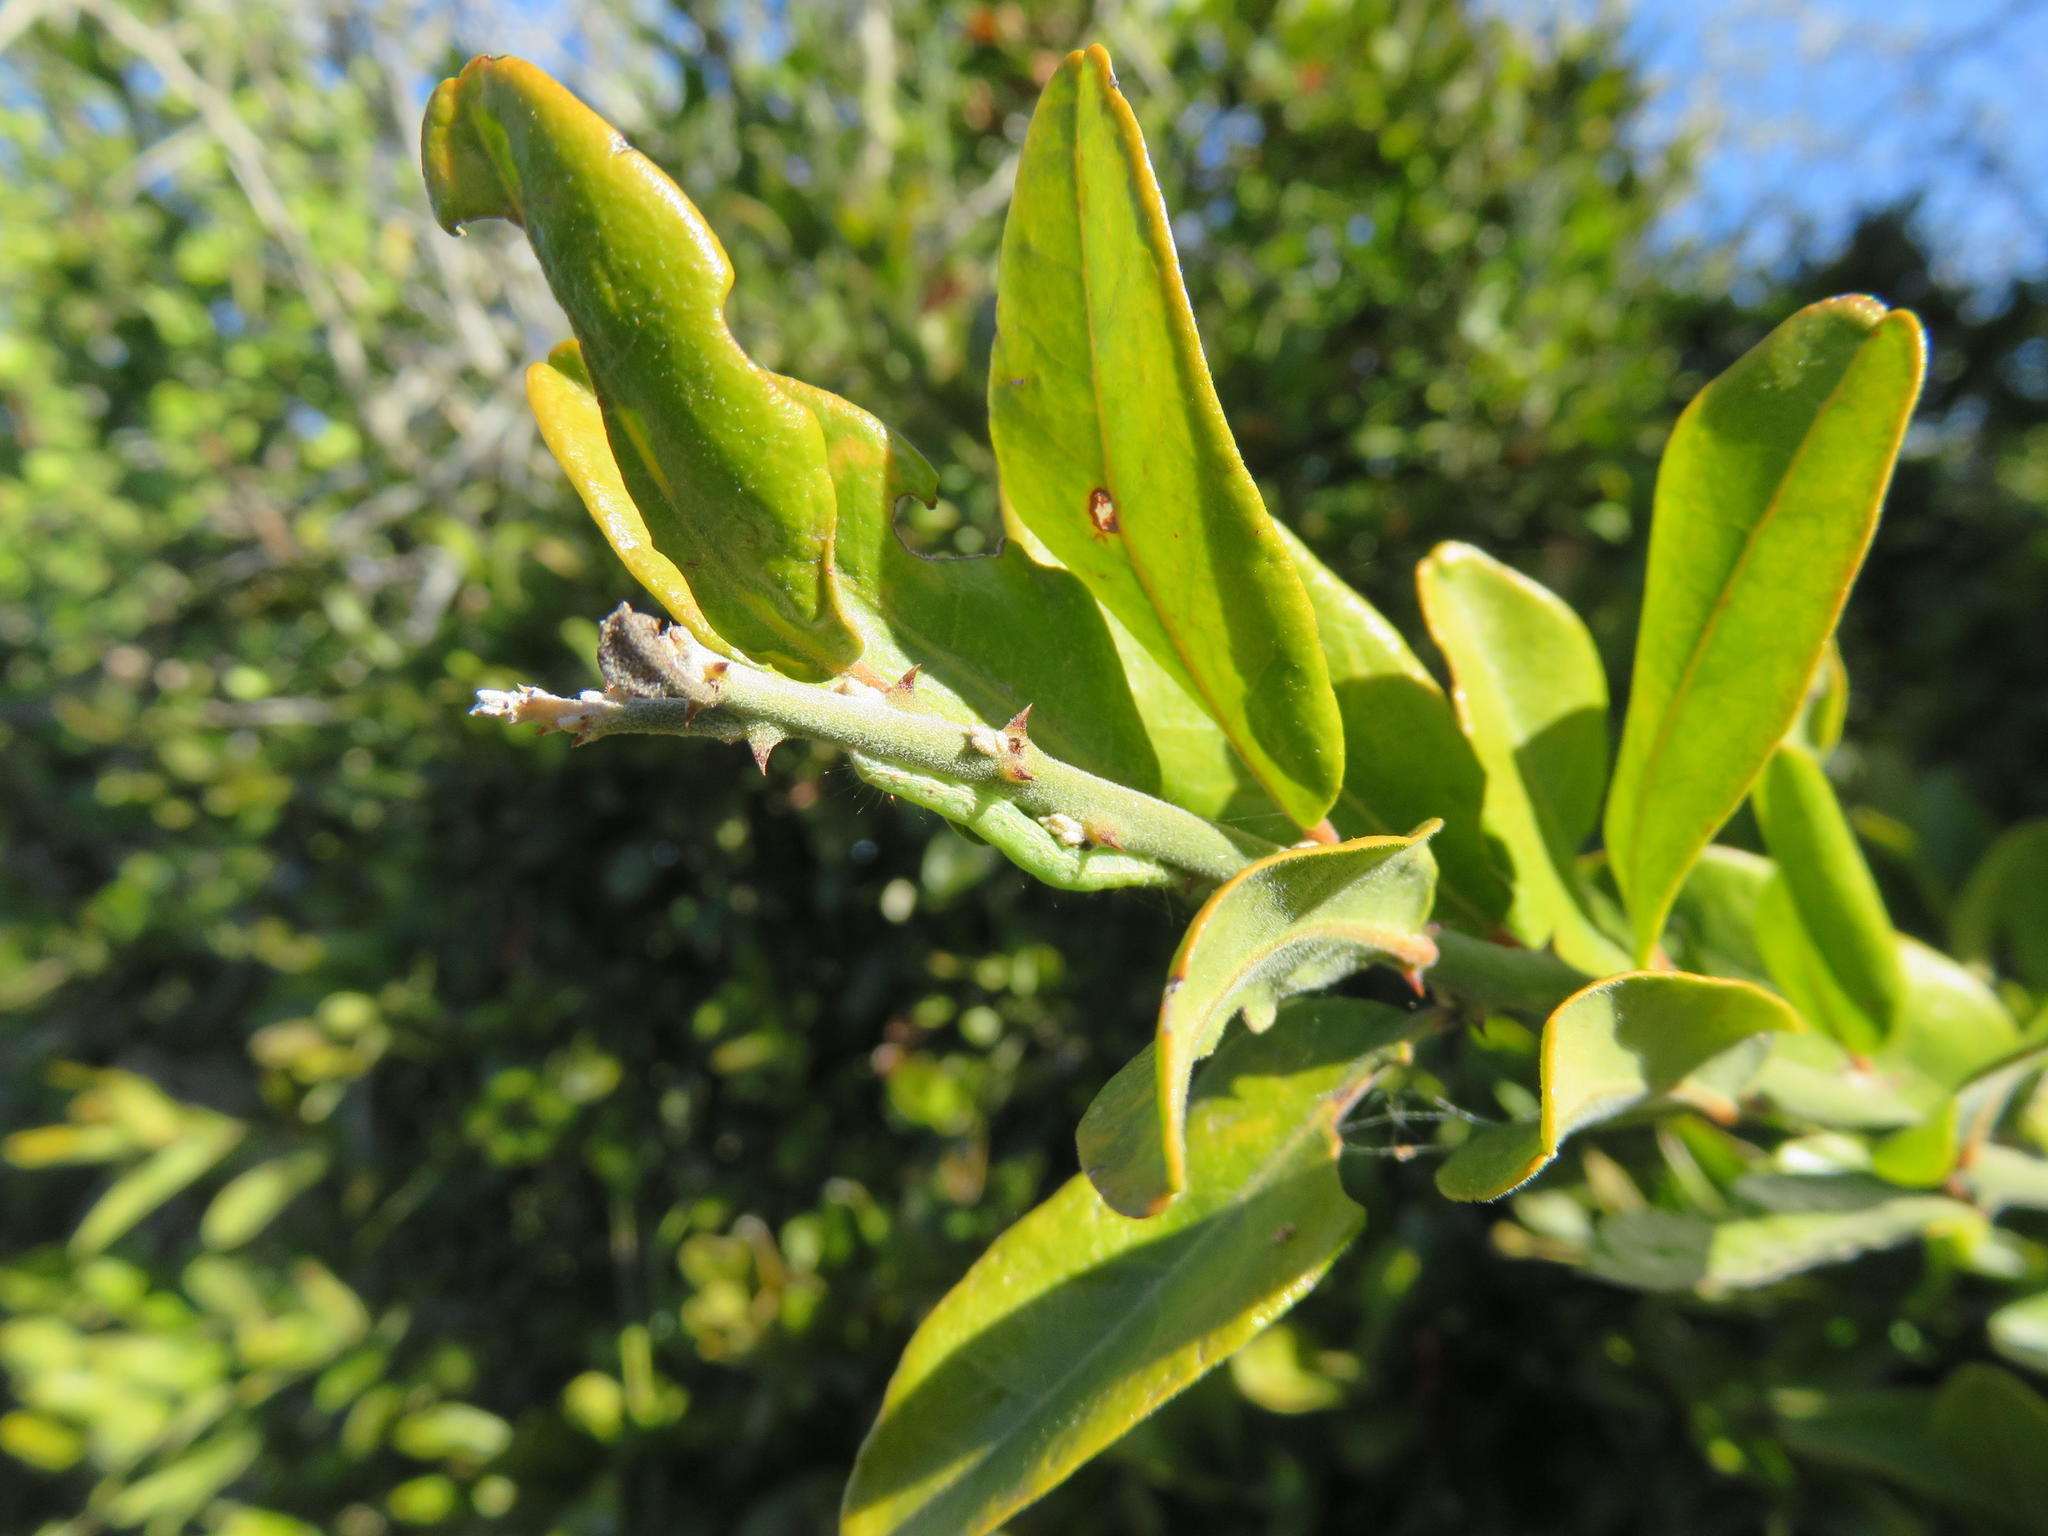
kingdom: Plantae
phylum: Tracheophyta
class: Magnoliopsida
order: Brassicales
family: Capparaceae
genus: Capparis
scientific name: Capparis sepiaria
